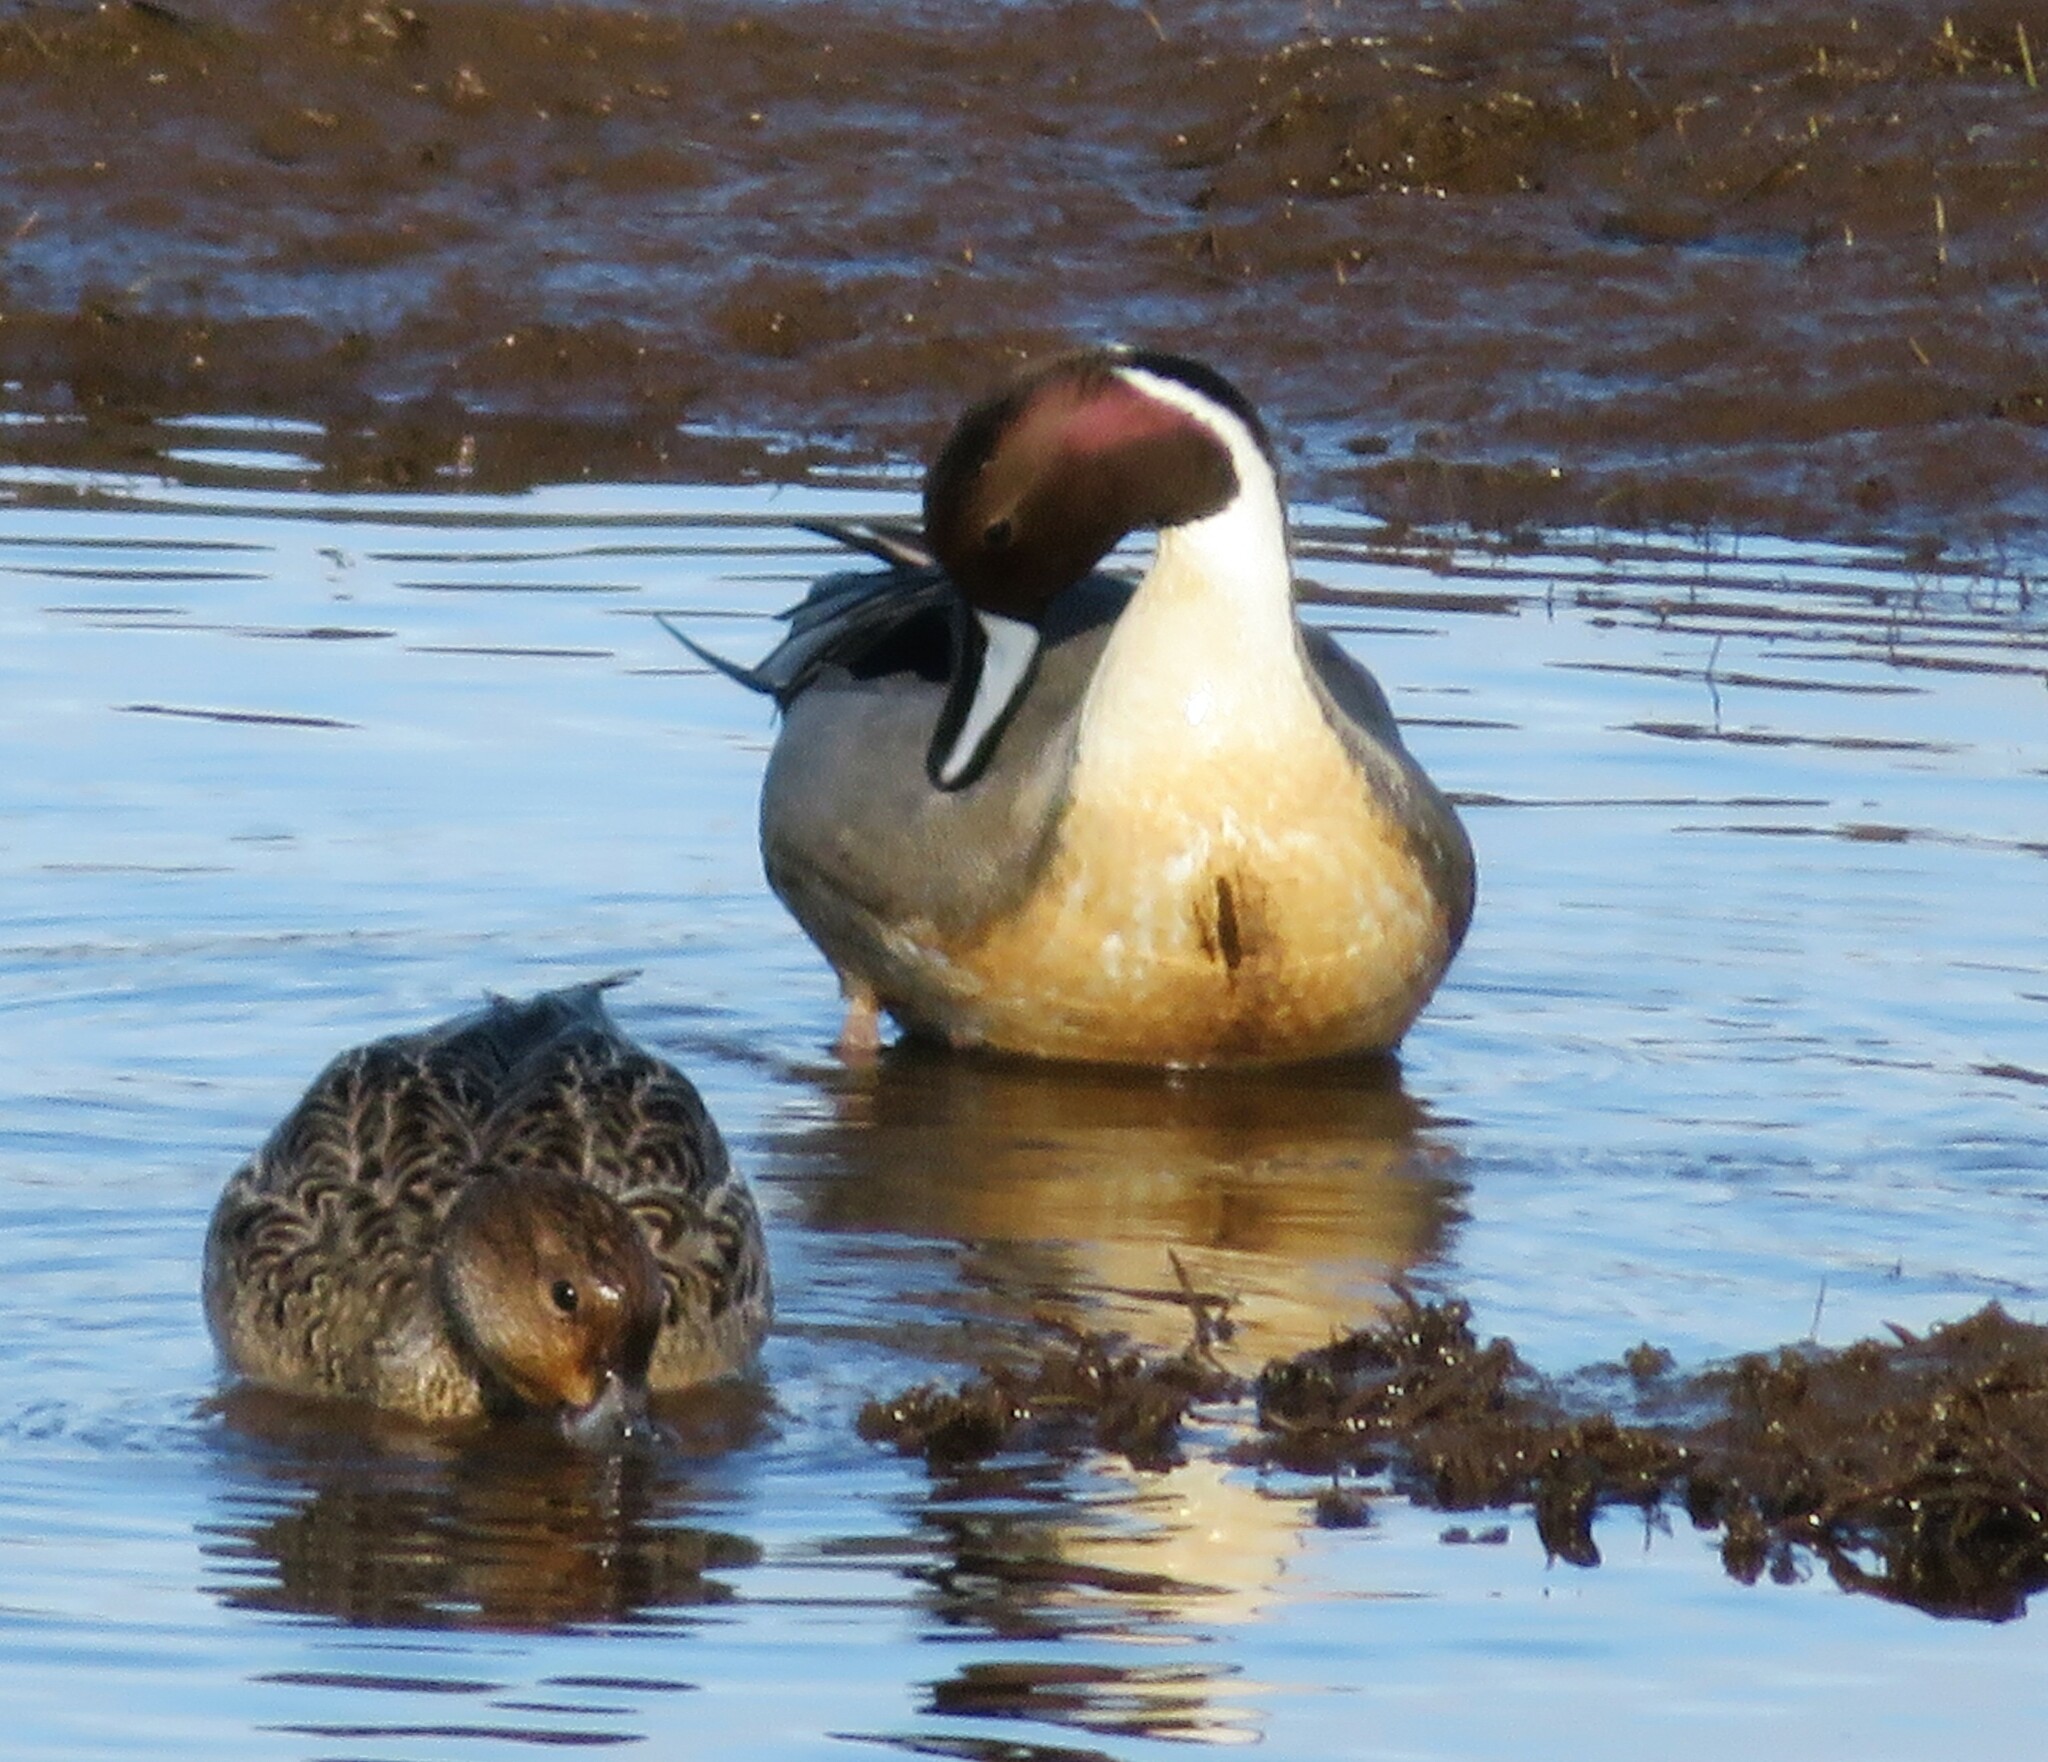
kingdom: Animalia
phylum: Chordata
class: Aves
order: Anseriformes
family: Anatidae
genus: Anas
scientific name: Anas acuta
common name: Northern pintail
